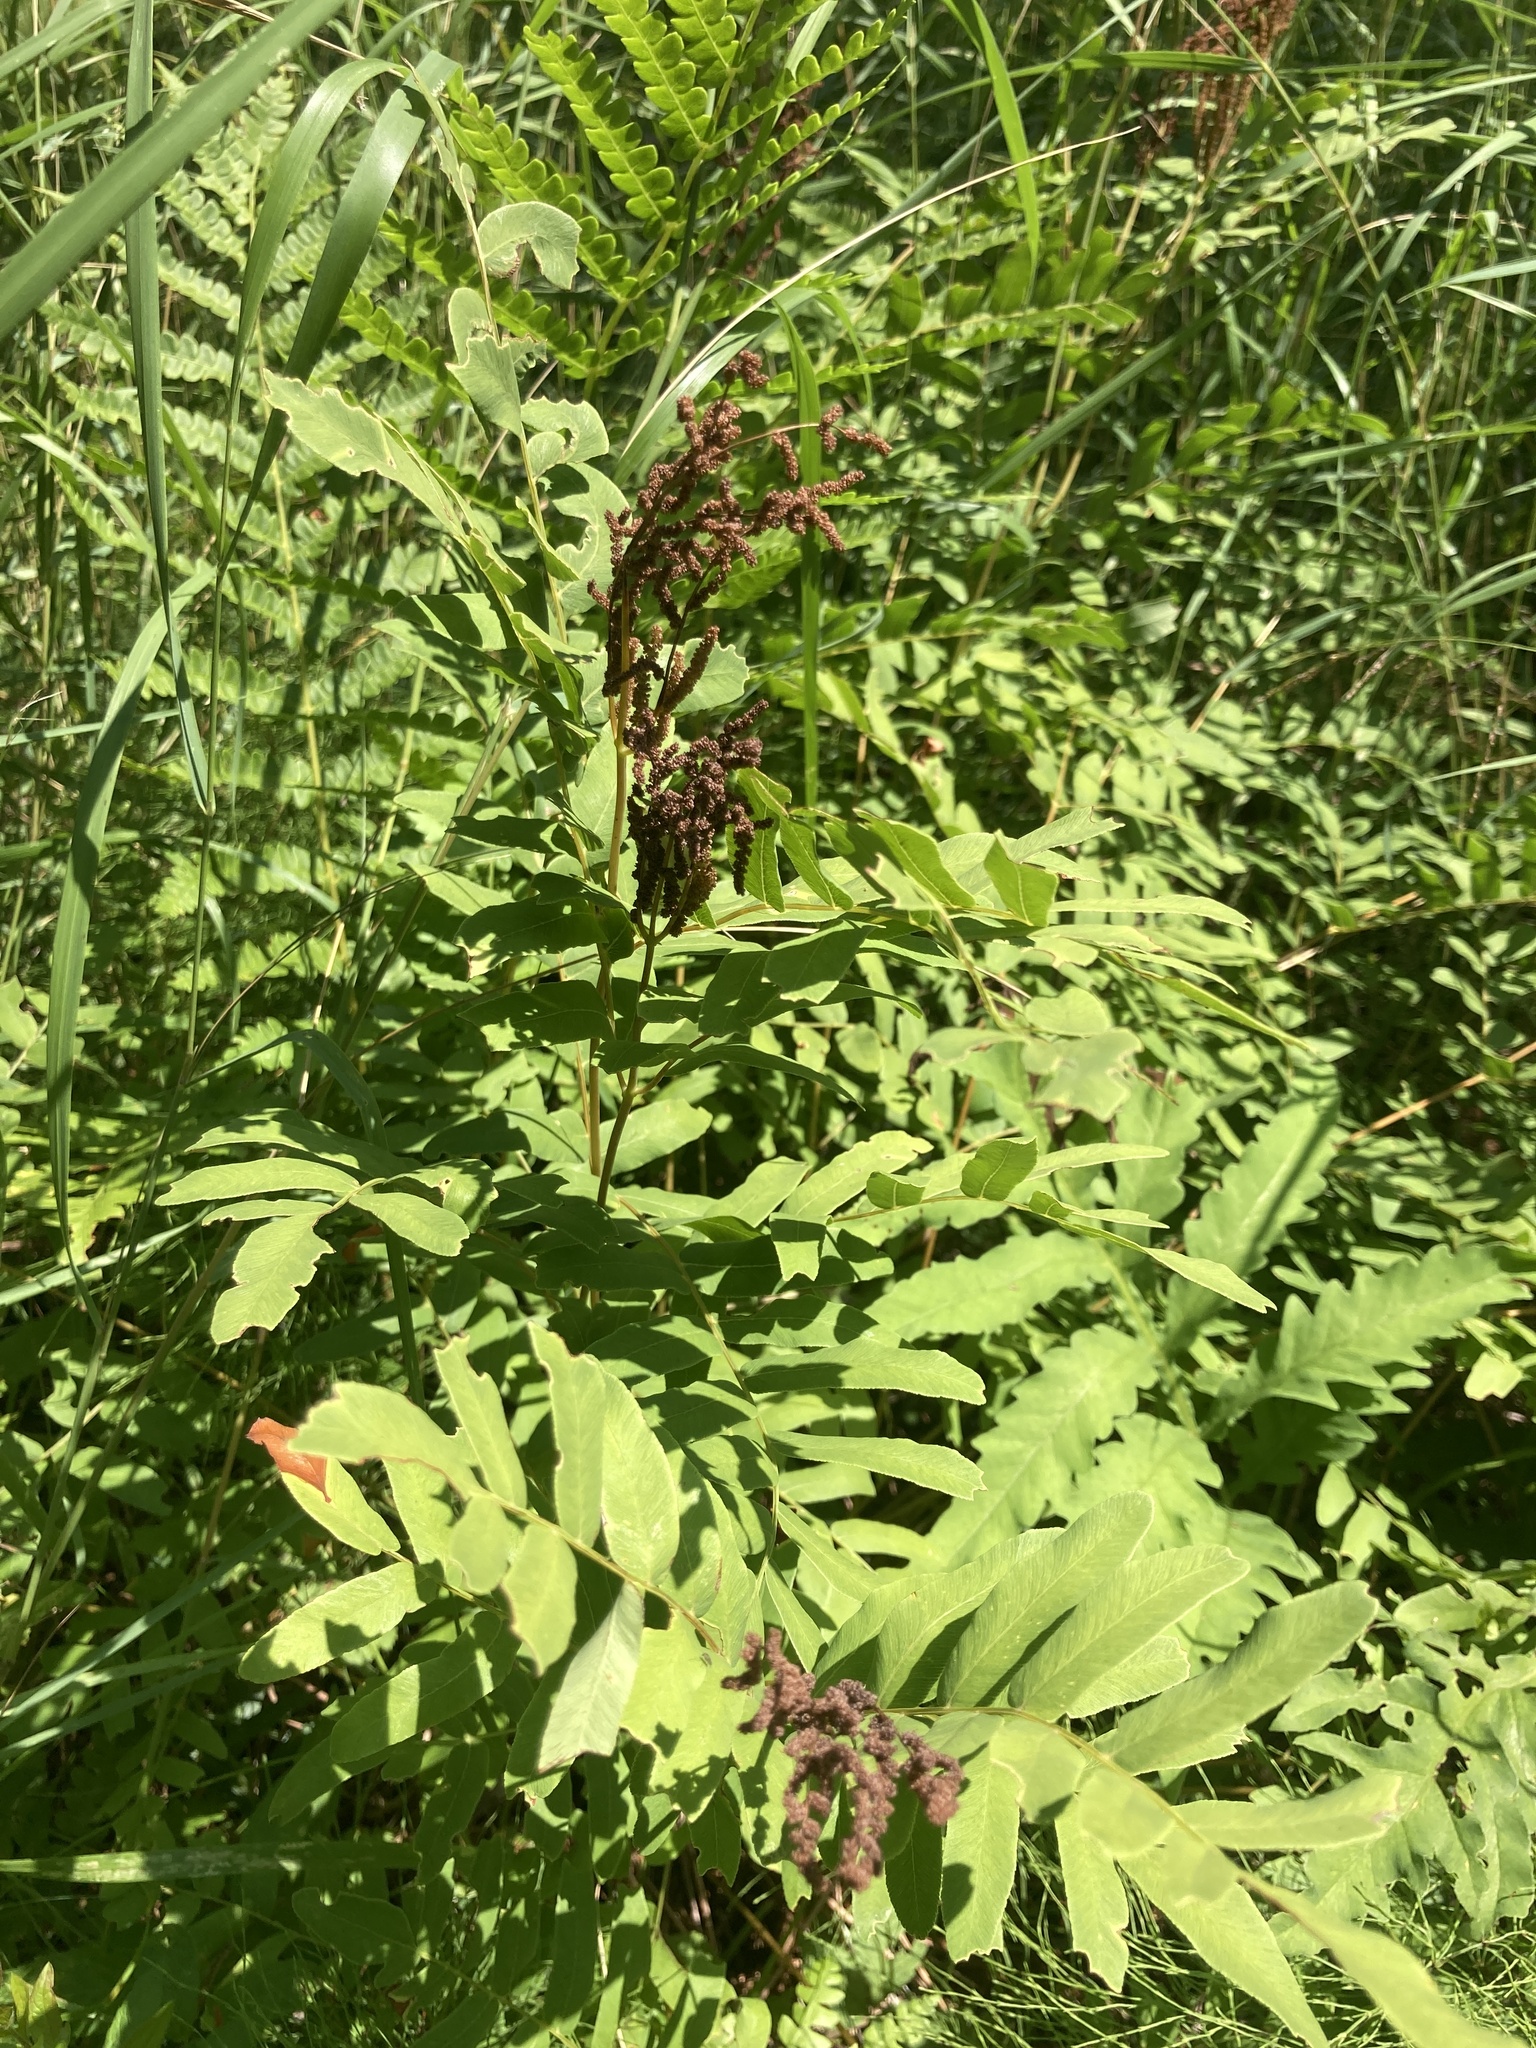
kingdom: Plantae
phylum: Tracheophyta
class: Polypodiopsida
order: Osmundales
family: Osmundaceae
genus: Osmunda
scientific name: Osmunda spectabilis
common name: American royal fern
